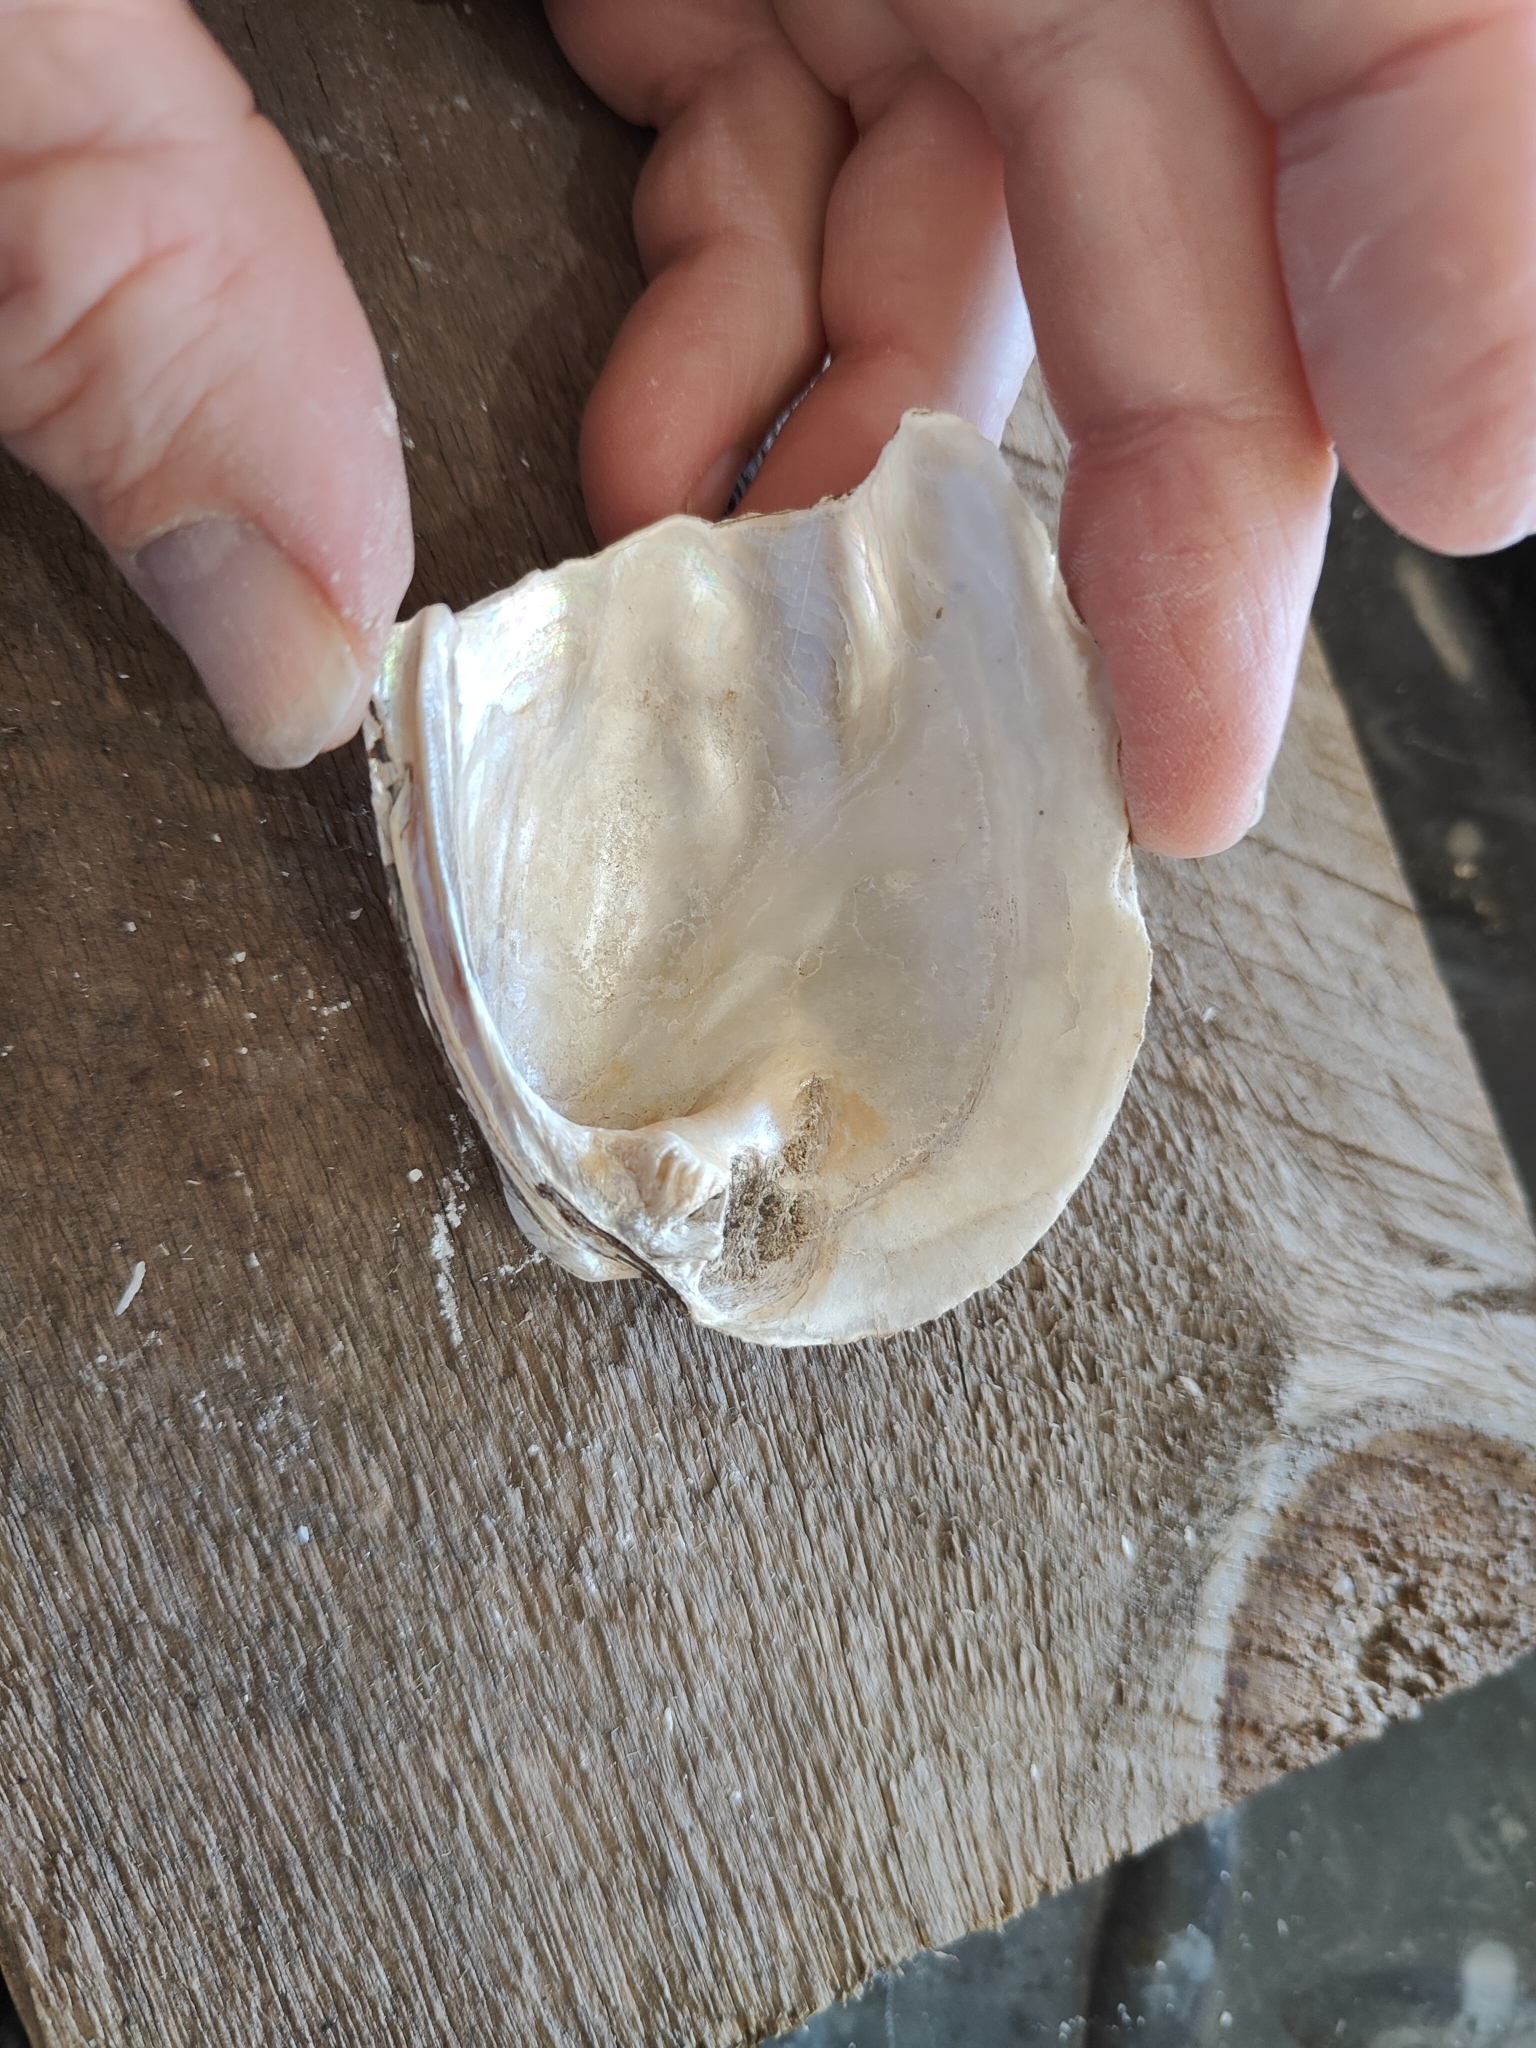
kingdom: Animalia
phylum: Mollusca
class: Bivalvia
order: Unionida
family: Unionidae
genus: Amblema
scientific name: Amblema plicata
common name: Threeridge
